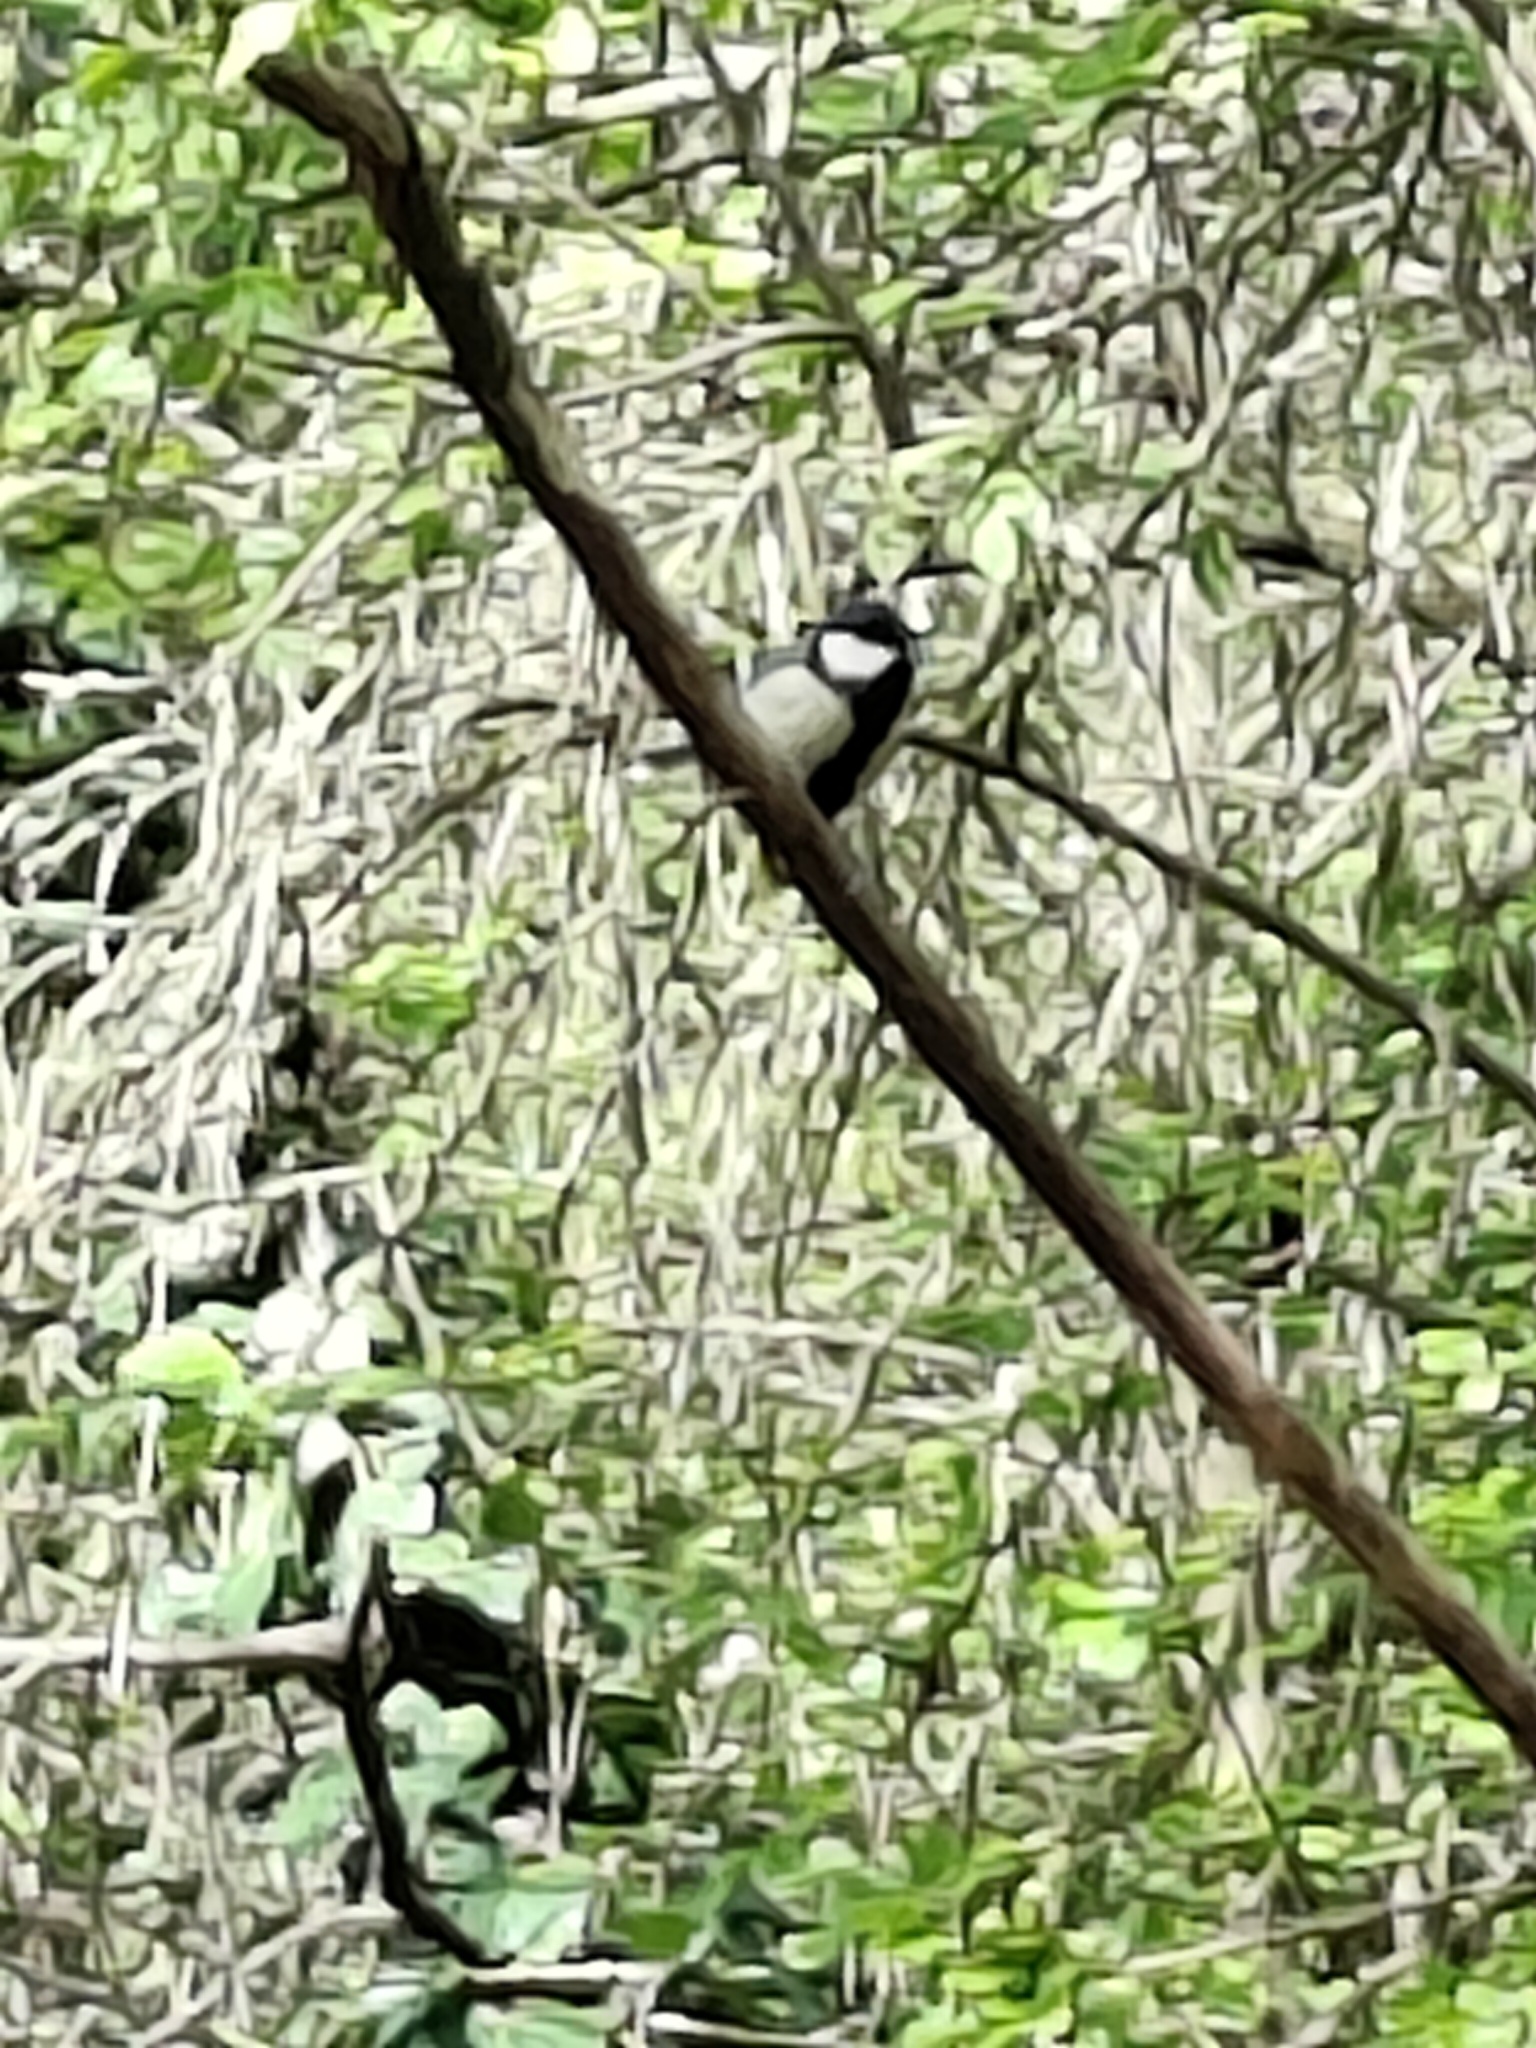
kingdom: Animalia
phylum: Chordata
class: Aves
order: Passeriformes
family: Paridae
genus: Parus
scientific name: Parus major
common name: Great tit
